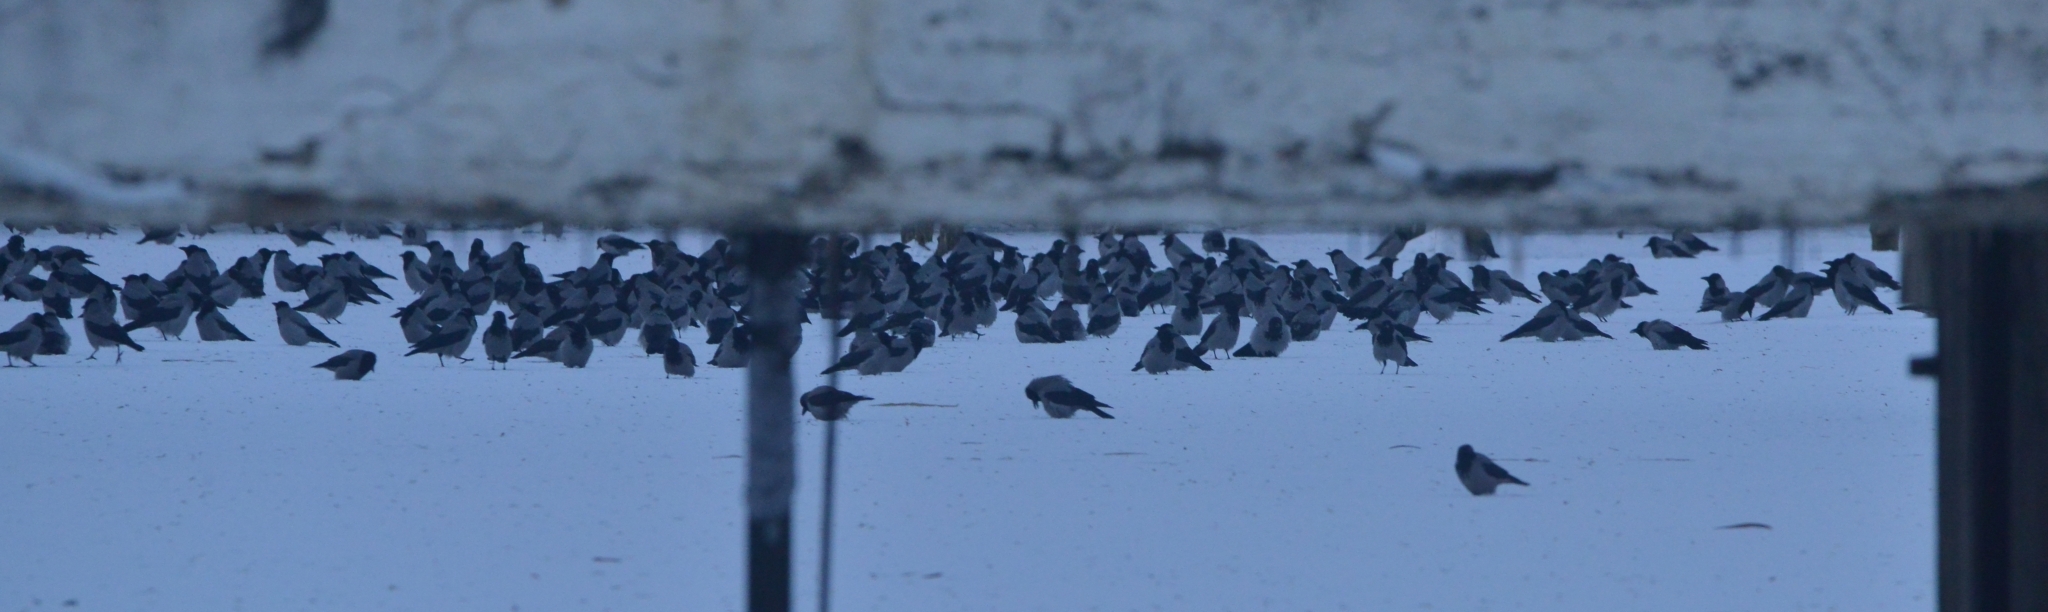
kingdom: Animalia
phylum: Chordata
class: Aves
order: Passeriformes
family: Corvidae
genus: Corvus
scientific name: Corvus cornix
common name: Hooded crow
